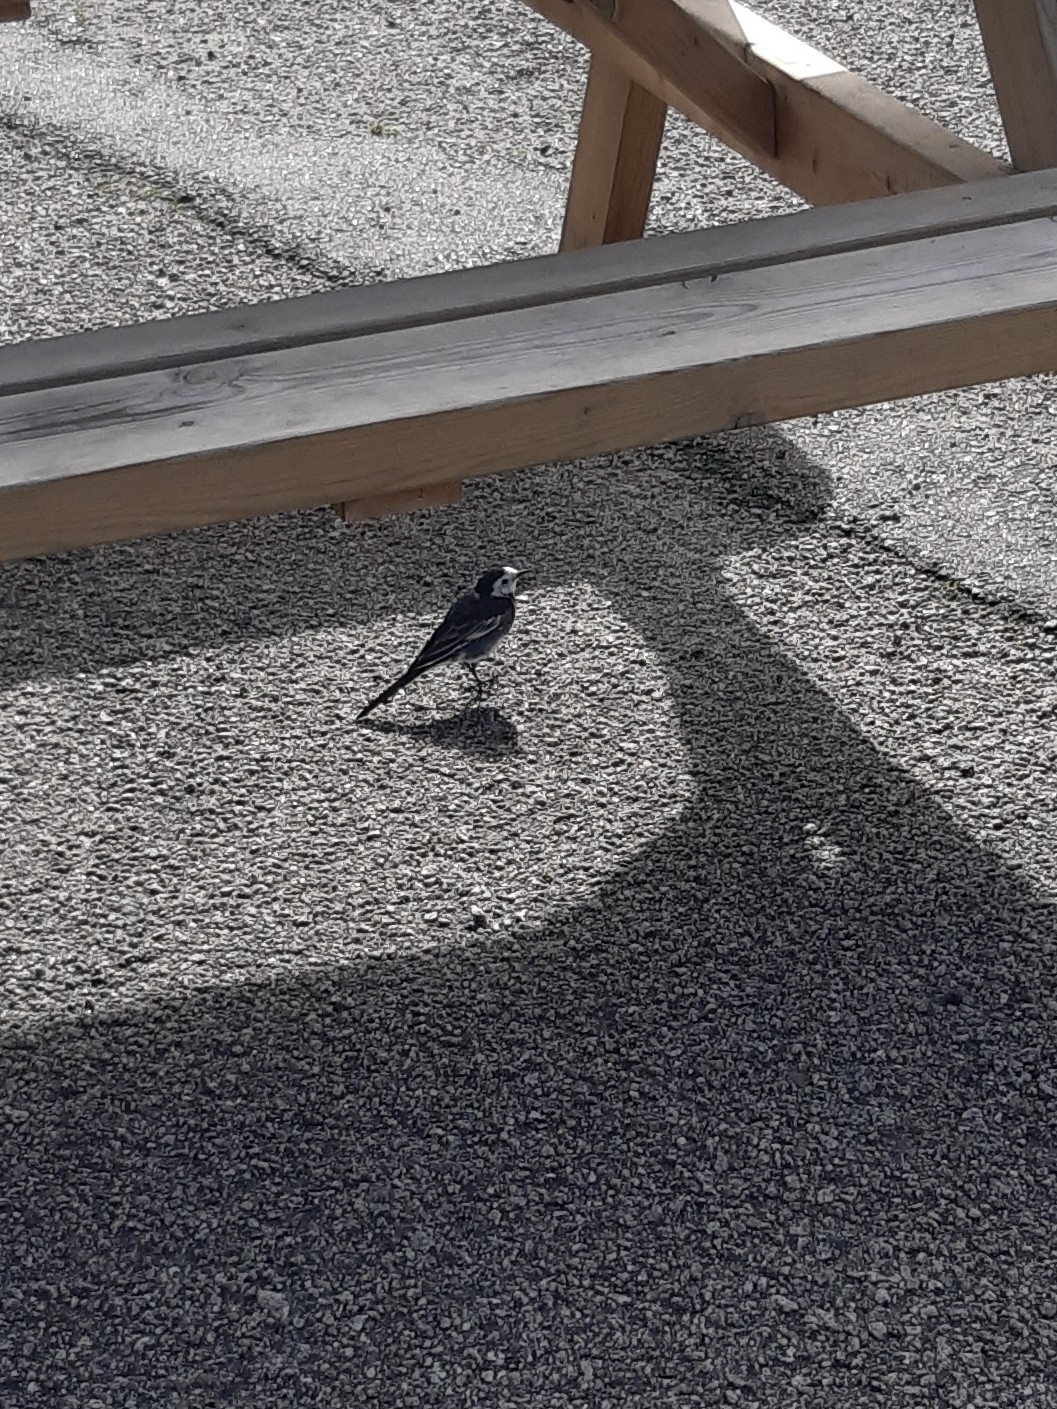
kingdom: Animalia
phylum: Chordata
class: Aves
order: Passeriformes
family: Motacillidae
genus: Motacilla
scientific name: Motacilla alba
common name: White wagtail
